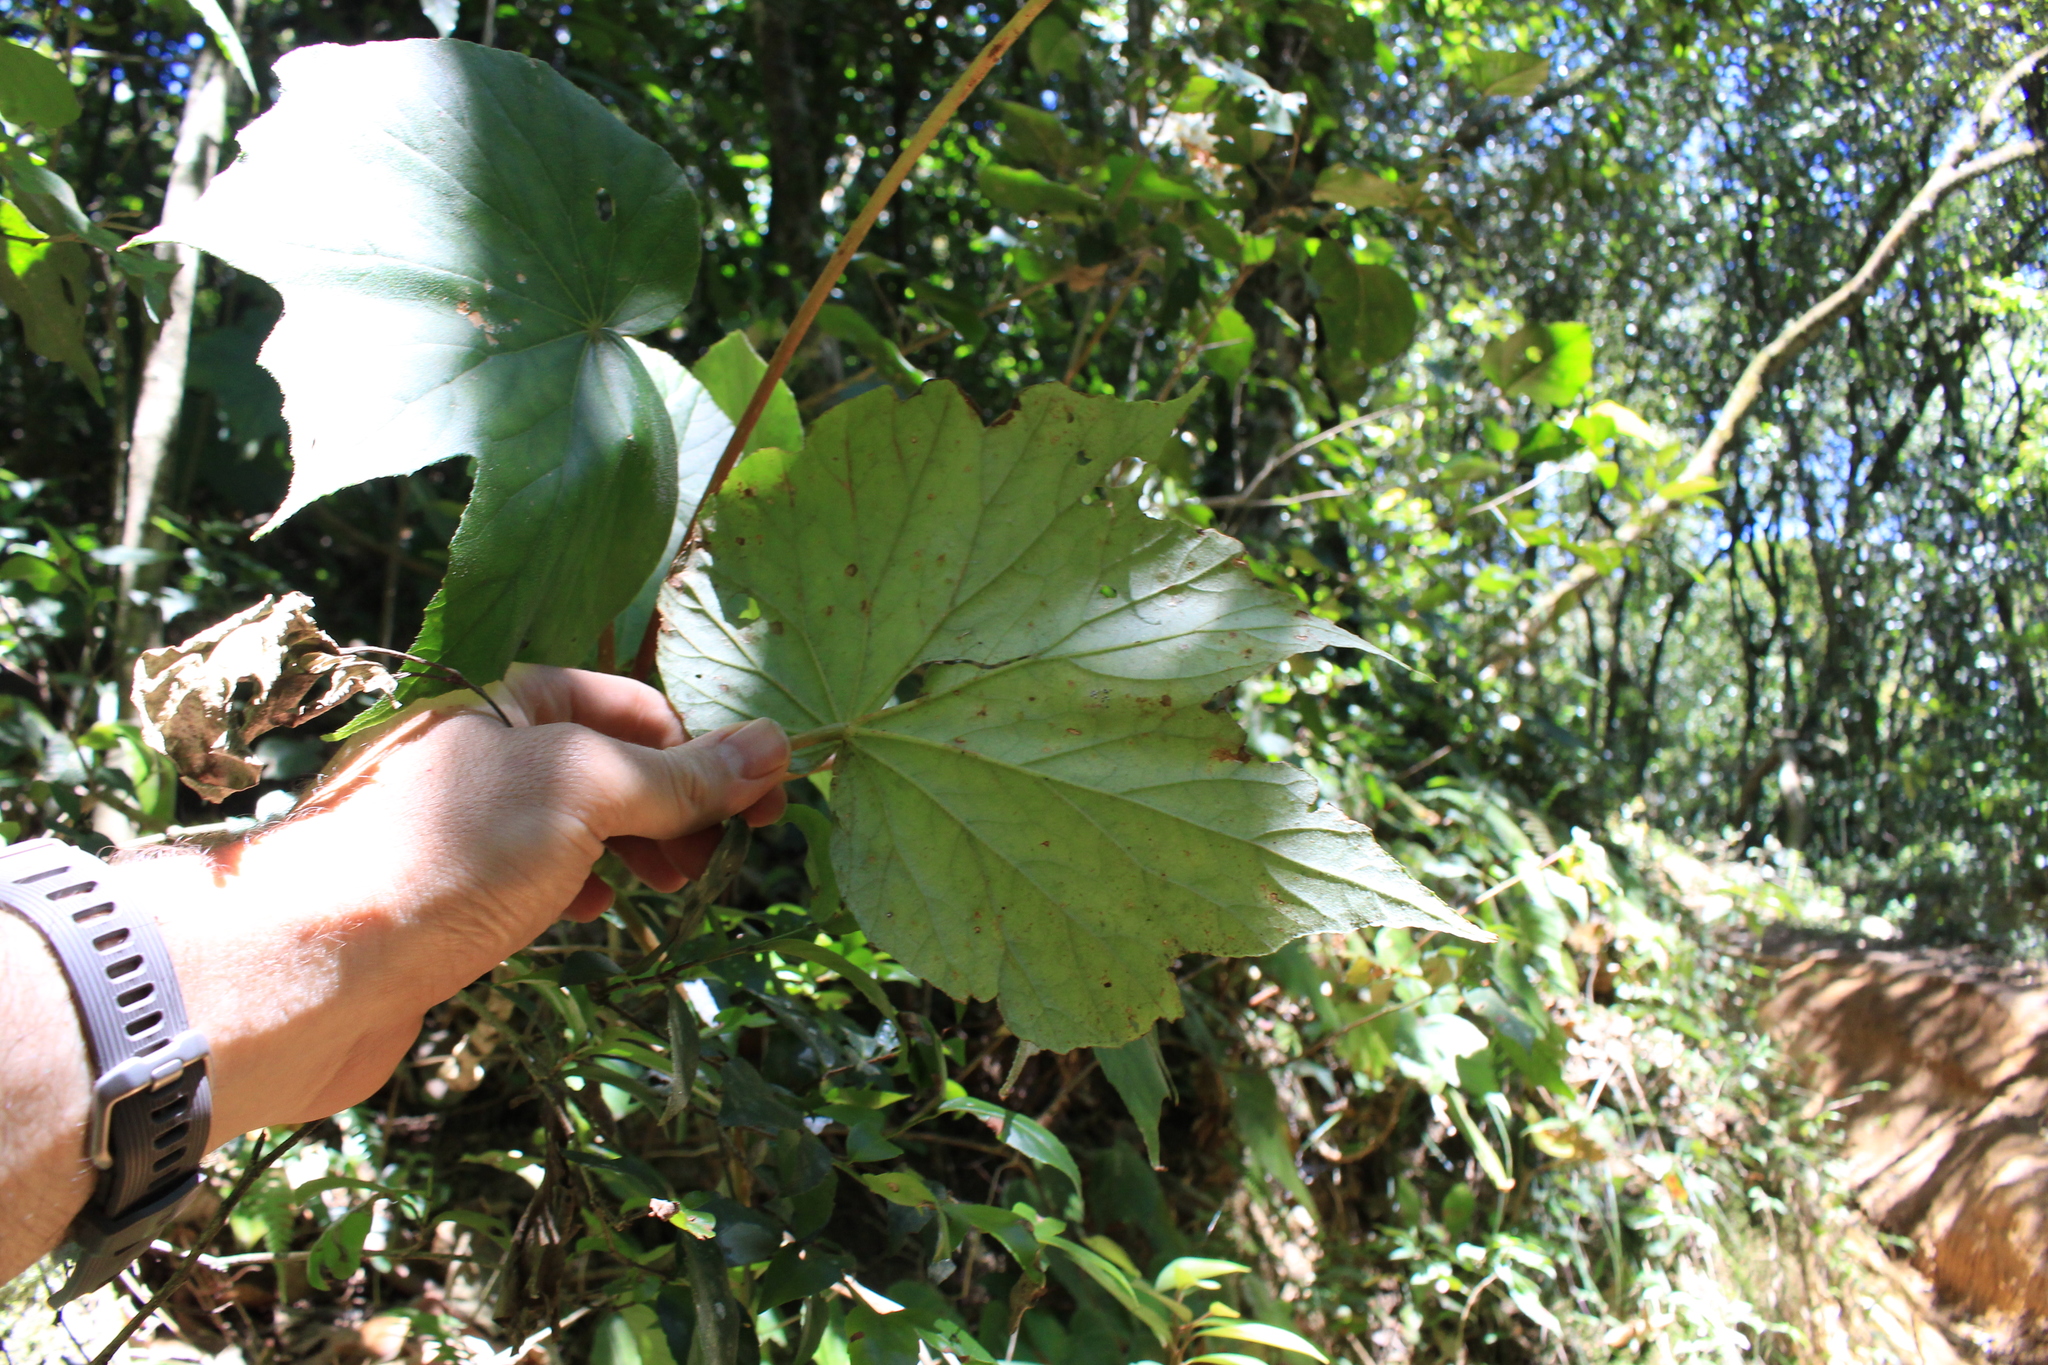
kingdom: Plantae
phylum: Tracheophyta
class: Magnoliopsida
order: Cucurbitales
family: Begoniaceae
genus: Begonia
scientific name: Begonia involucrata
